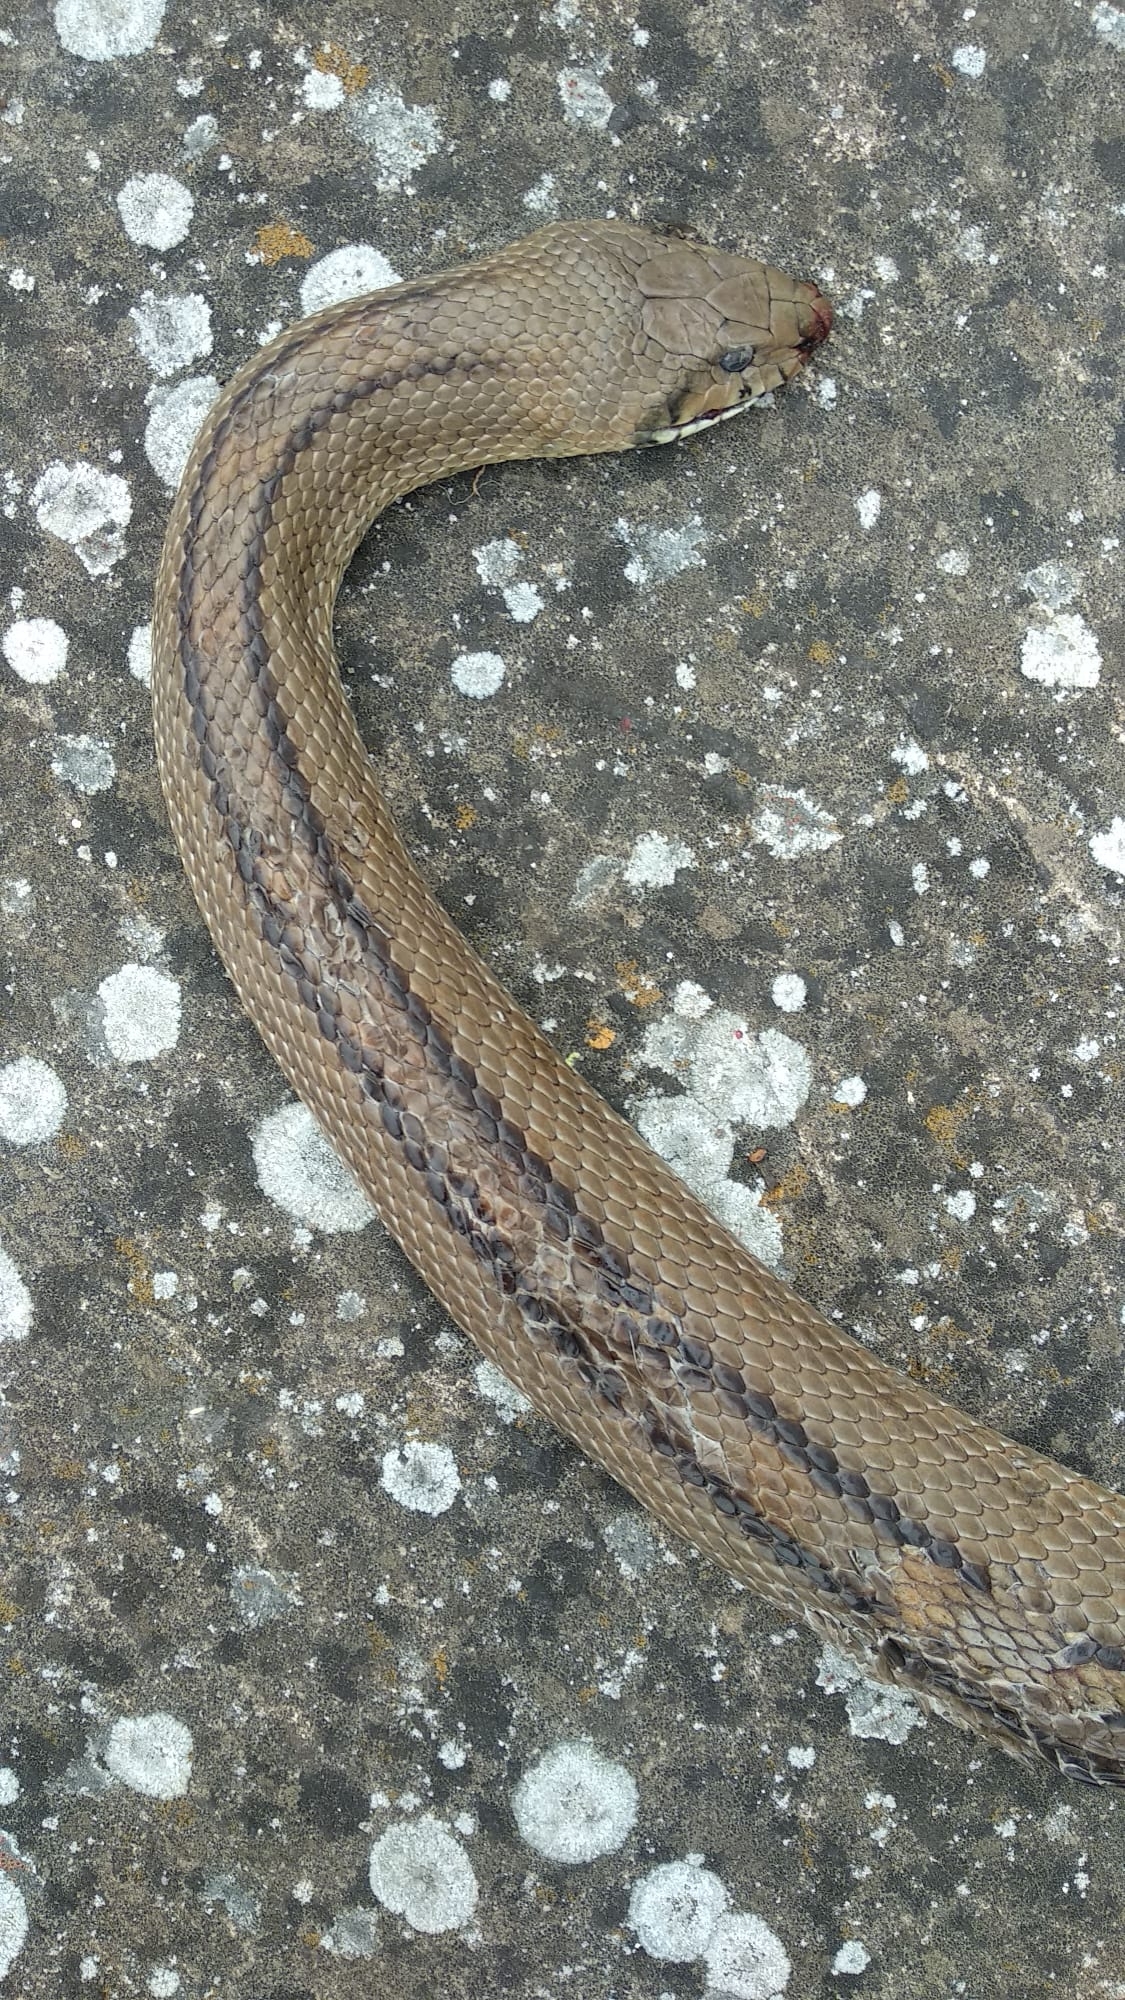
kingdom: Animalia
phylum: Chordata
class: Squamata
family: Colubridae
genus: Zamenis
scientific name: Zamenis scalaris
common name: Ladder snakes
